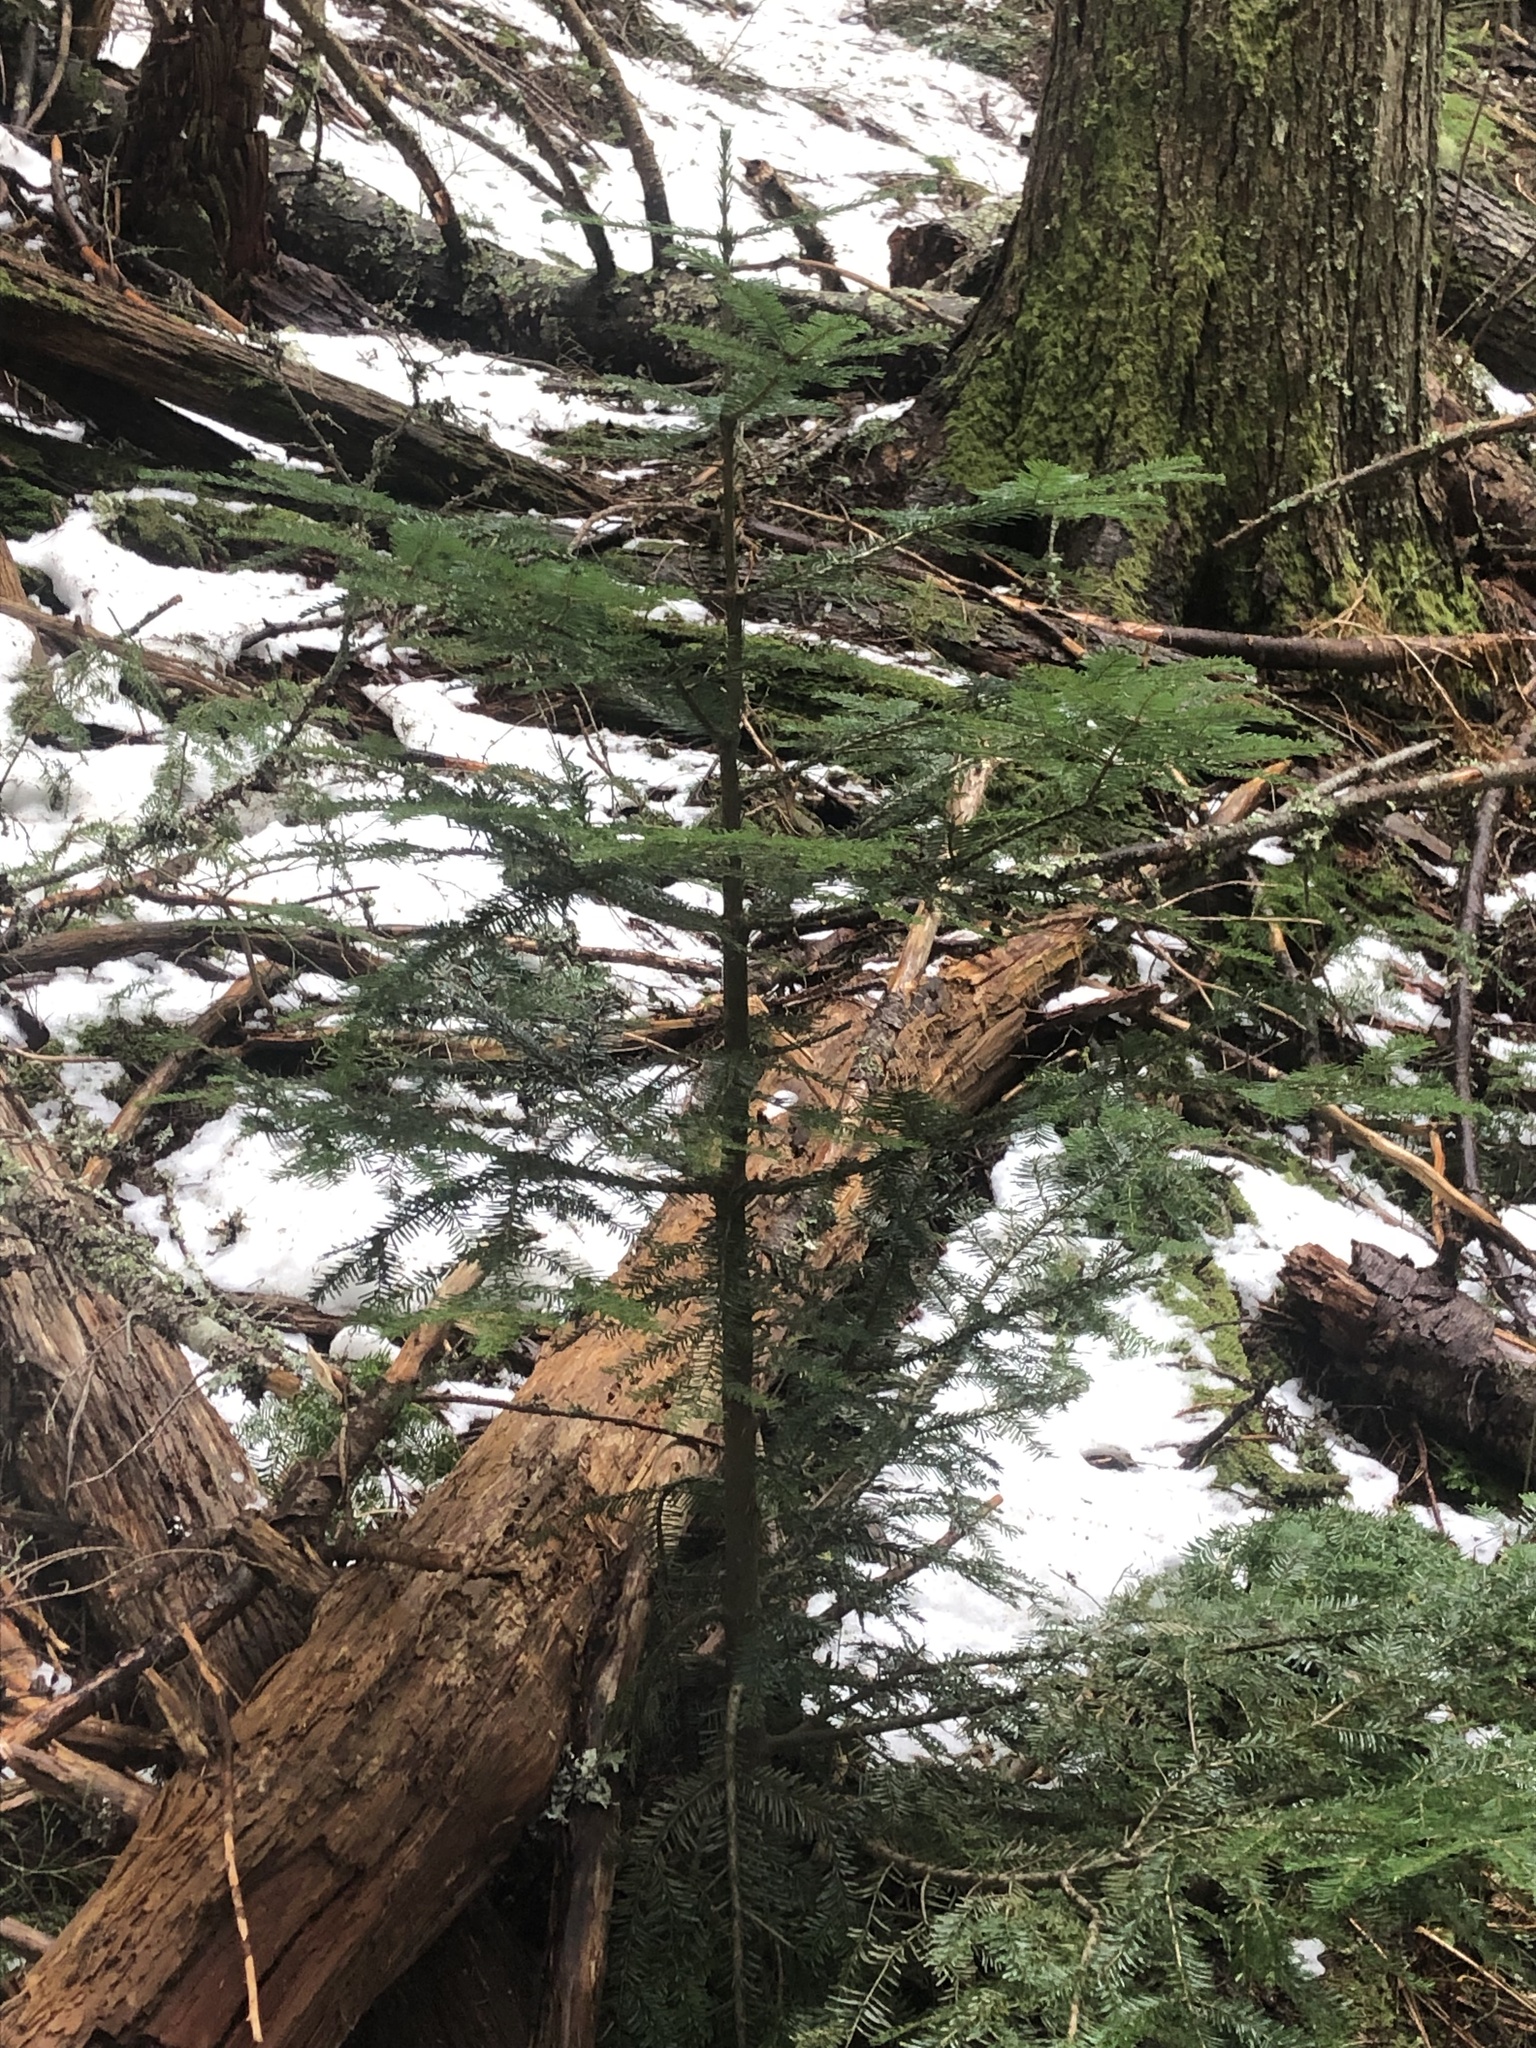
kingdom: Plantae
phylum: Tracheophyta
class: Pinopsida
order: Pinales
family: Pinaceae
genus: Abies
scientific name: Abies amabilis
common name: Pacific silver fir
